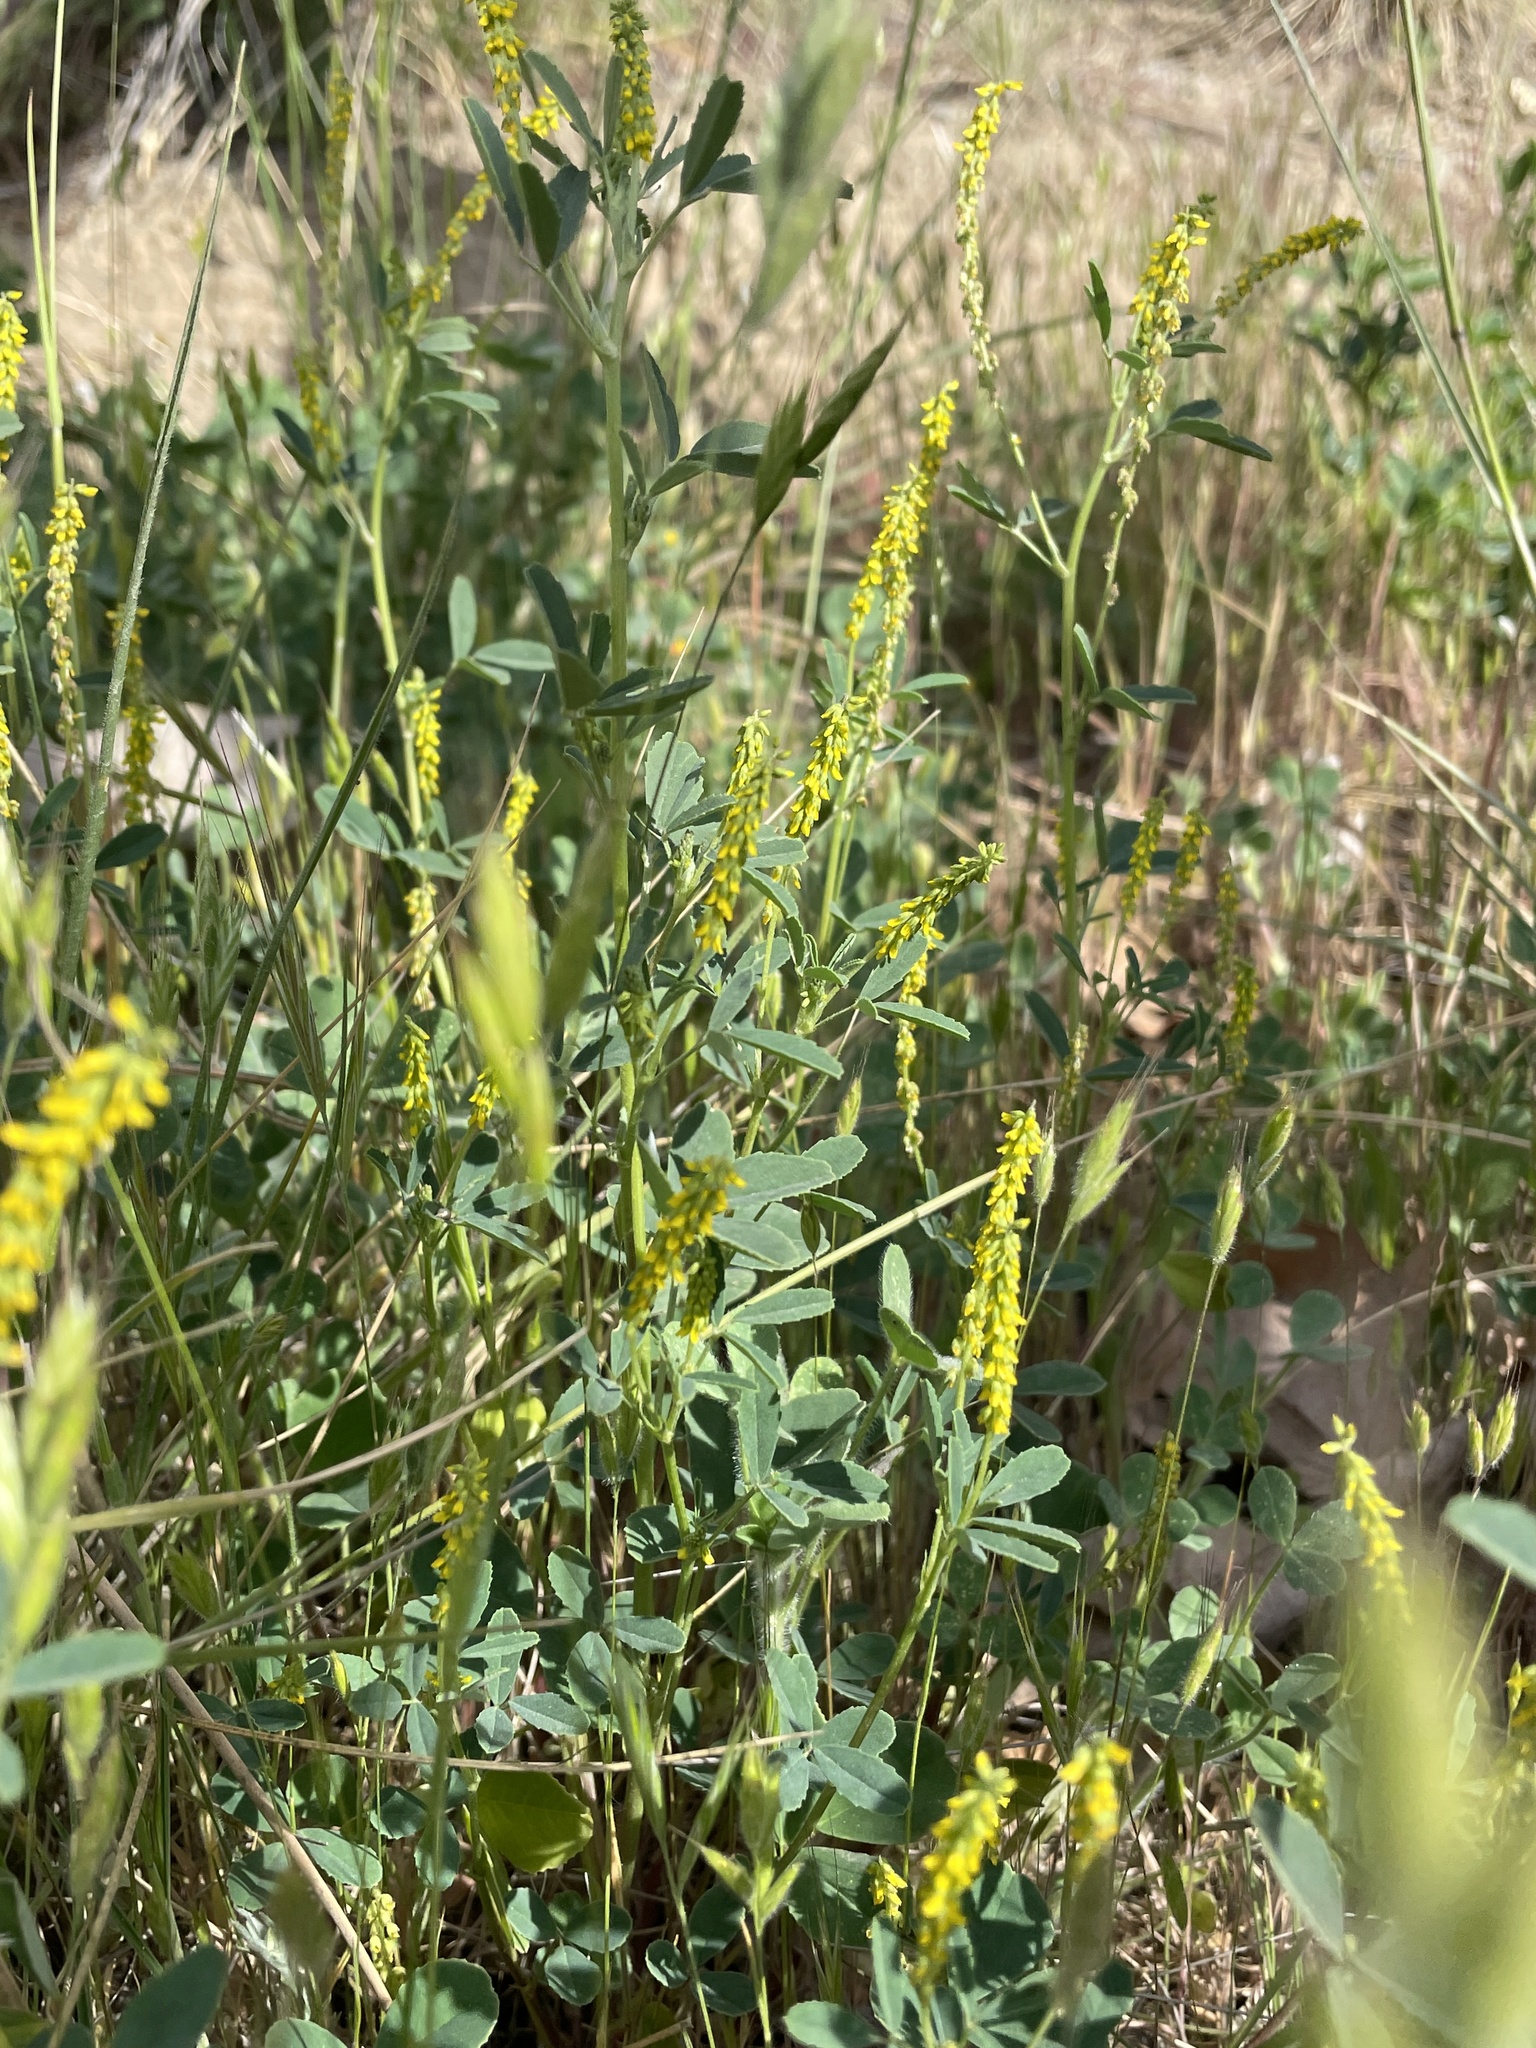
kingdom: Plantae
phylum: Tracheophyta
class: Magnoliopsida
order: Fabales
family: Fabaceae
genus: Melilotus
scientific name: Melilotus indicus
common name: Small melilot
